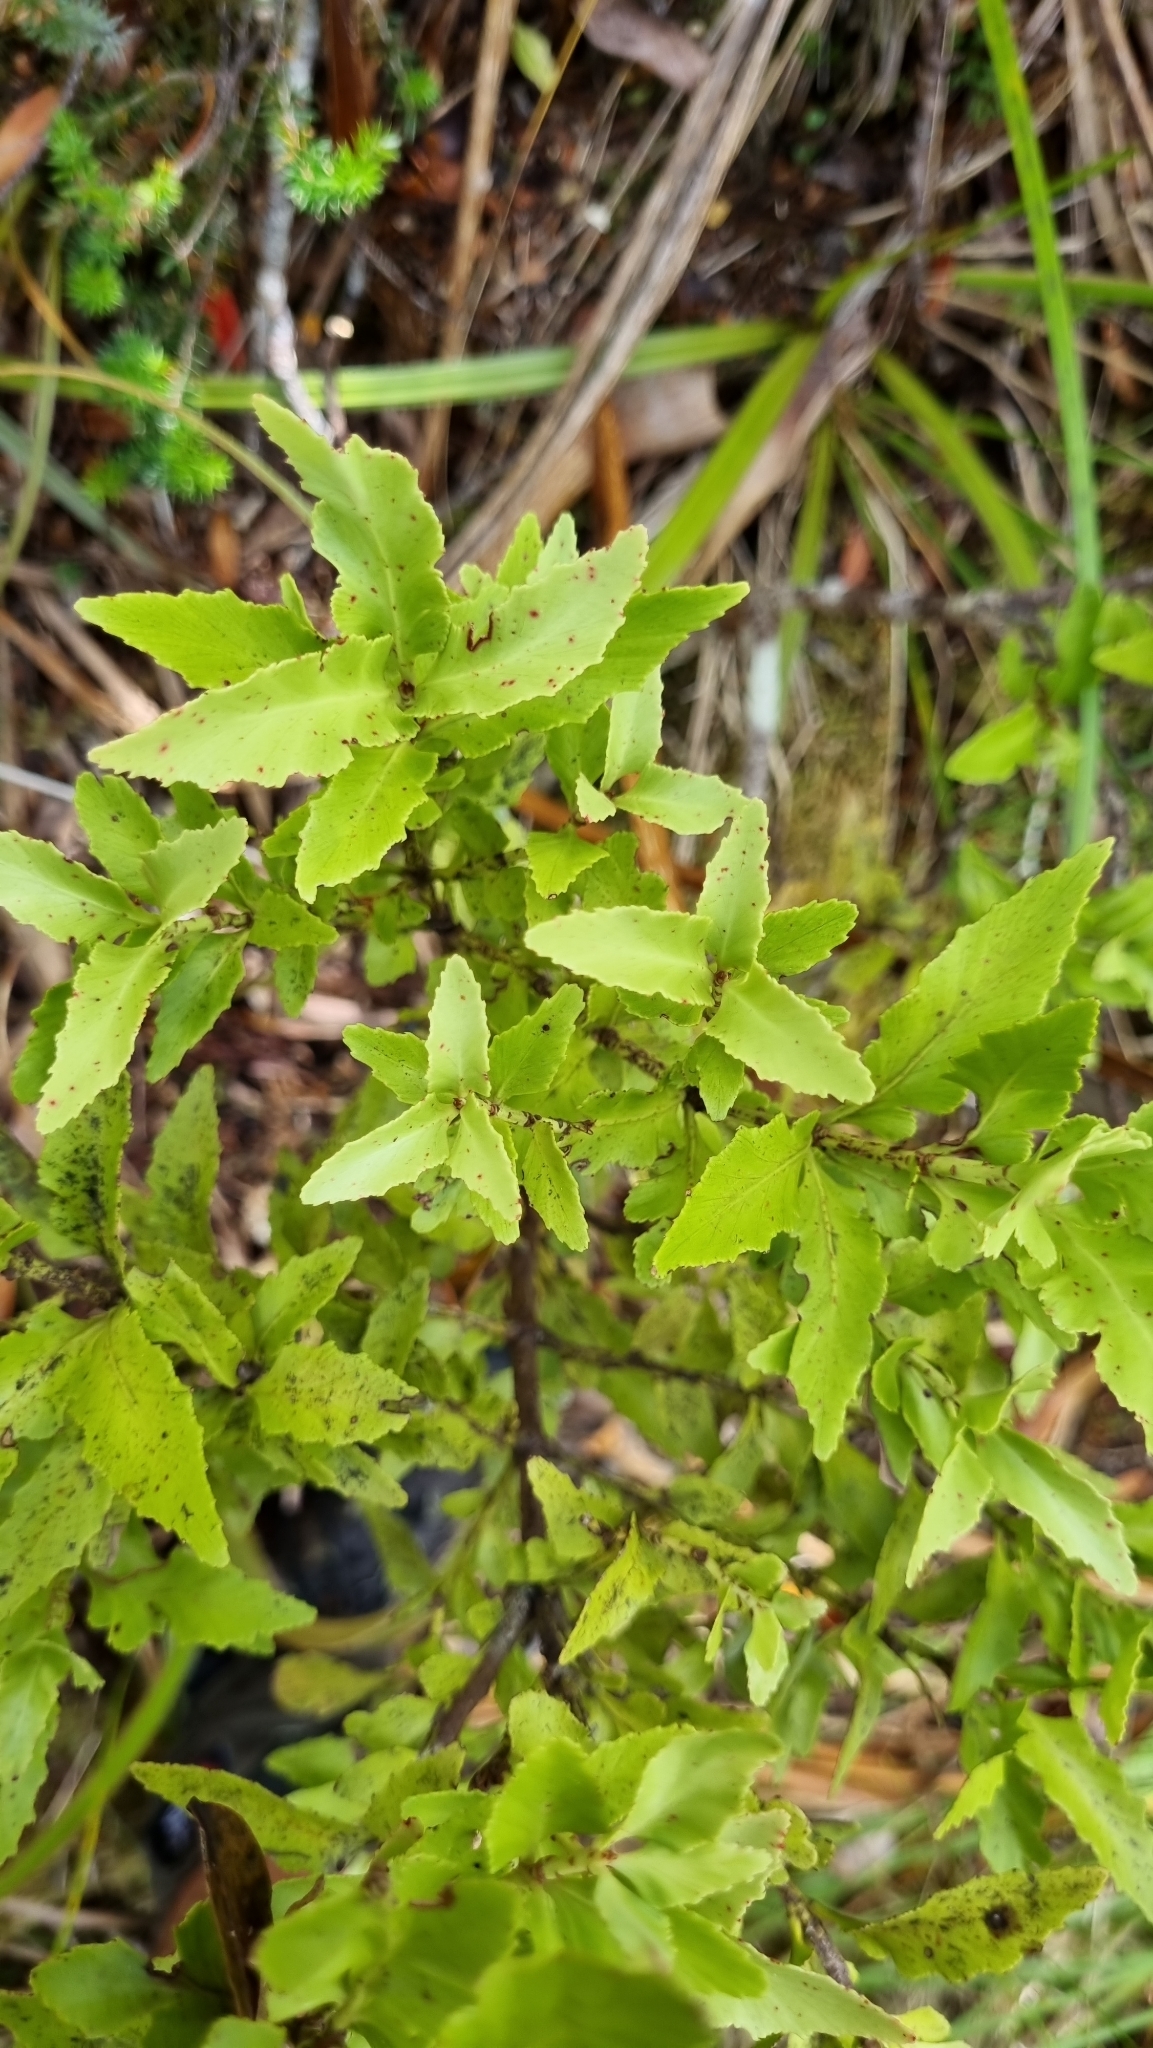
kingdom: Plantae
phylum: Tracheophyta
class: Pinopsida
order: Pinales
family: Phyllocladaceae
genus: Phyllocladus
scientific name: Phyllocladus trichomanoides
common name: Celery pine
